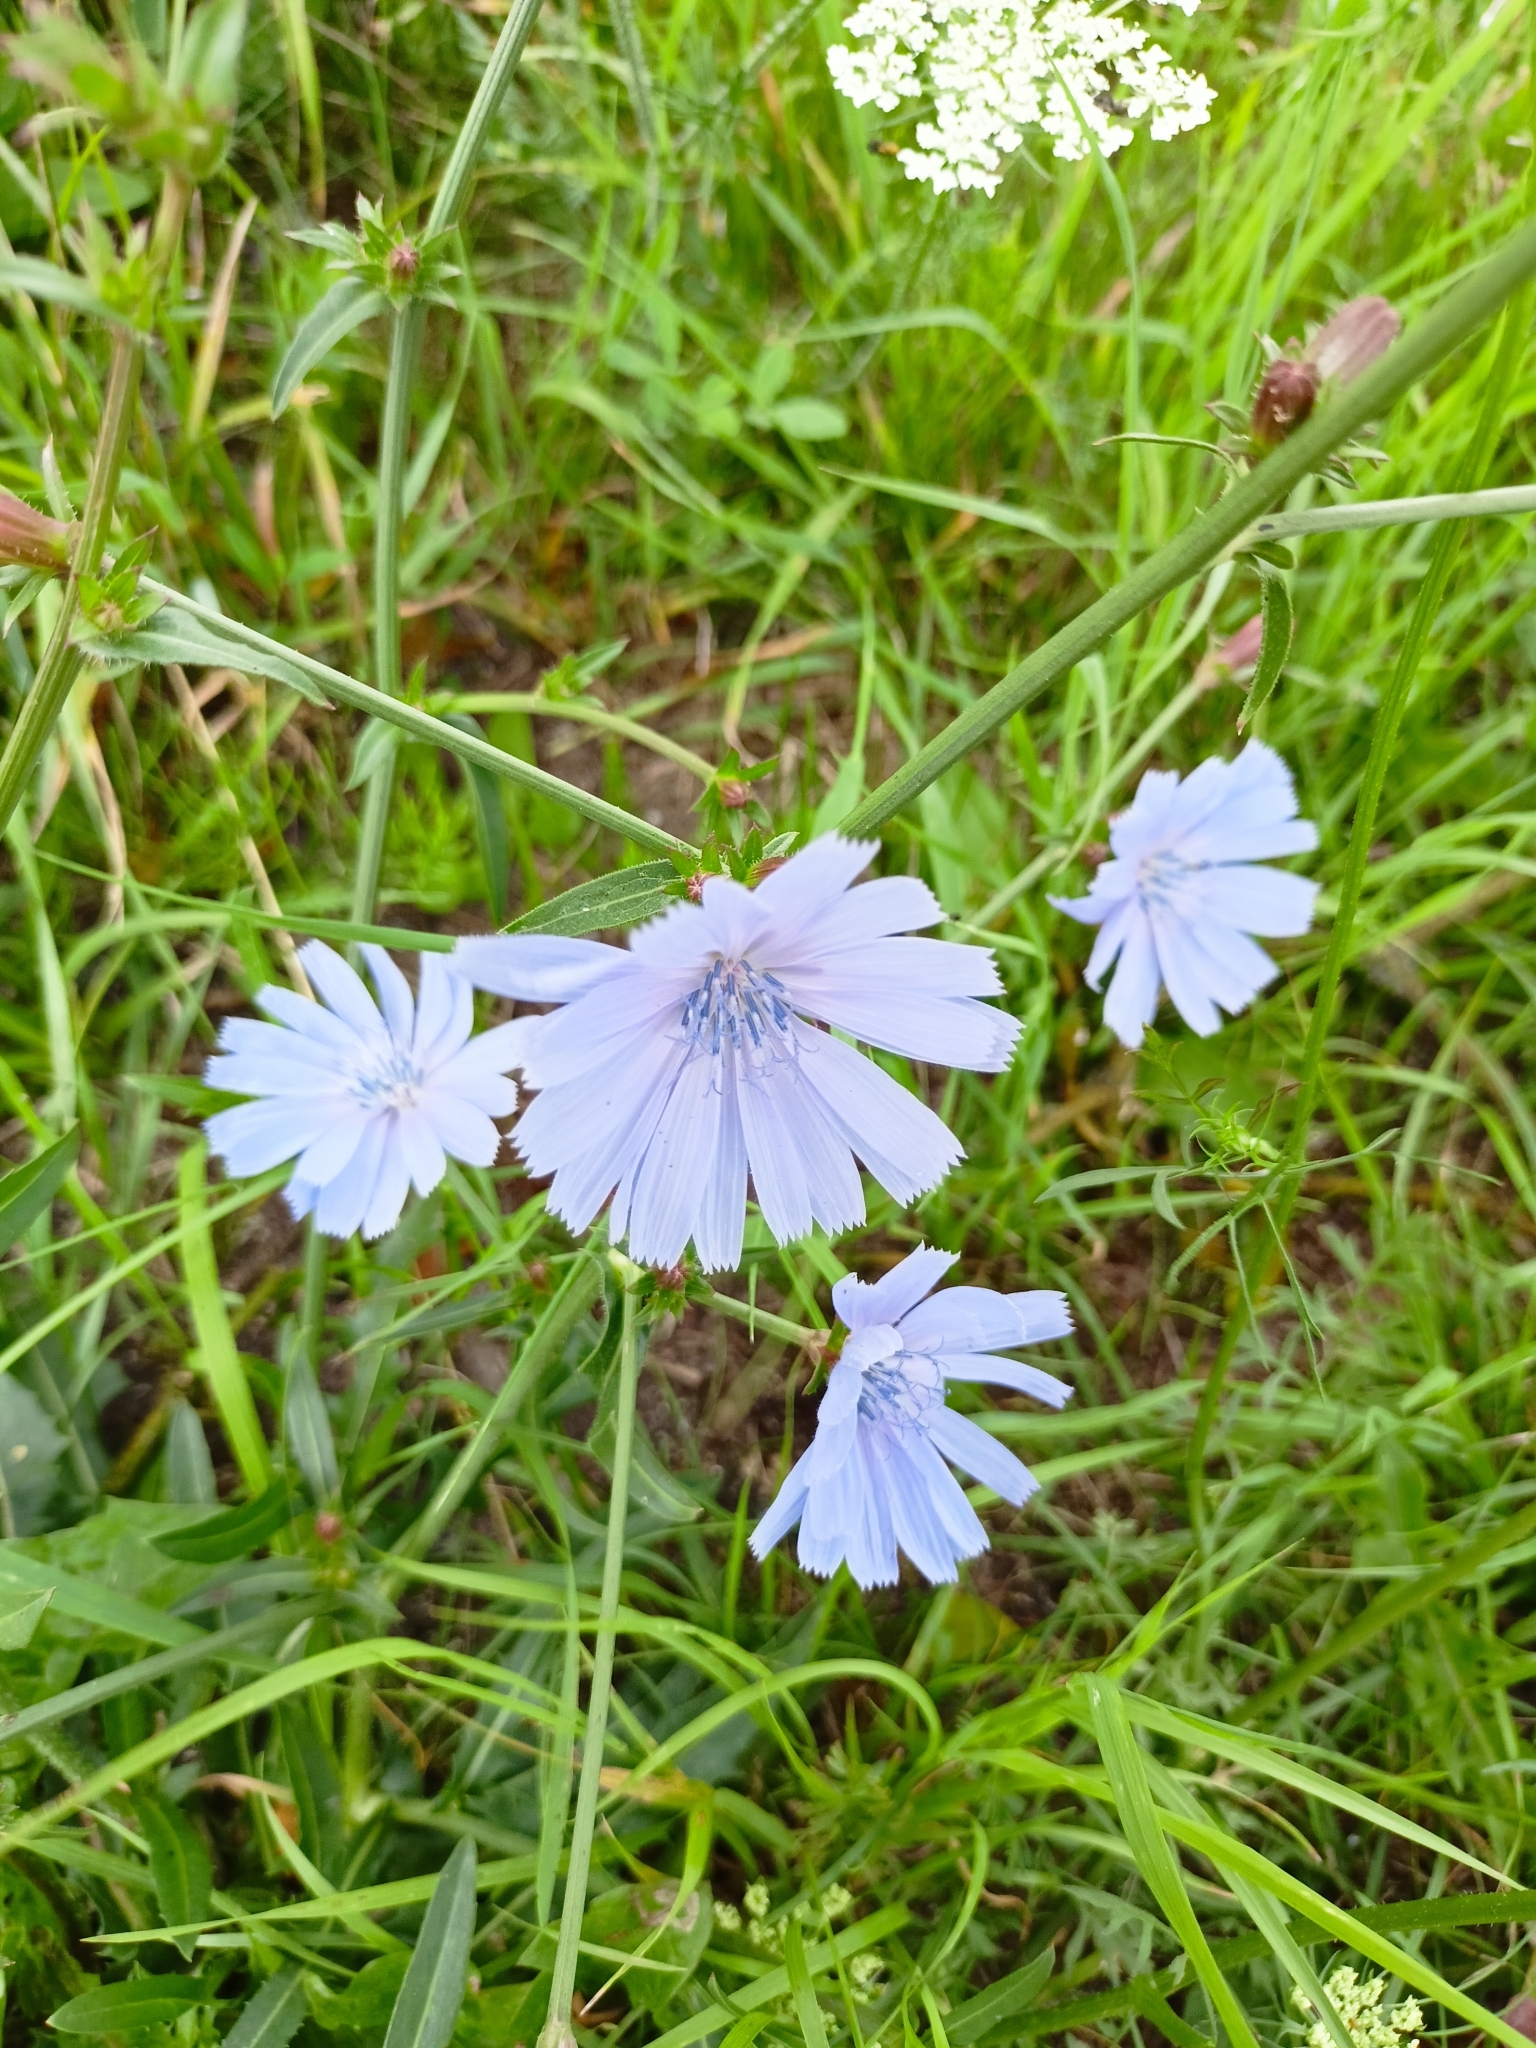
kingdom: Plantae
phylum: Tracheophyta
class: Magnoliopsida
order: Asterales
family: Asteraceae
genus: Cichorium
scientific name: Cichorium intybus
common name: Chicory
